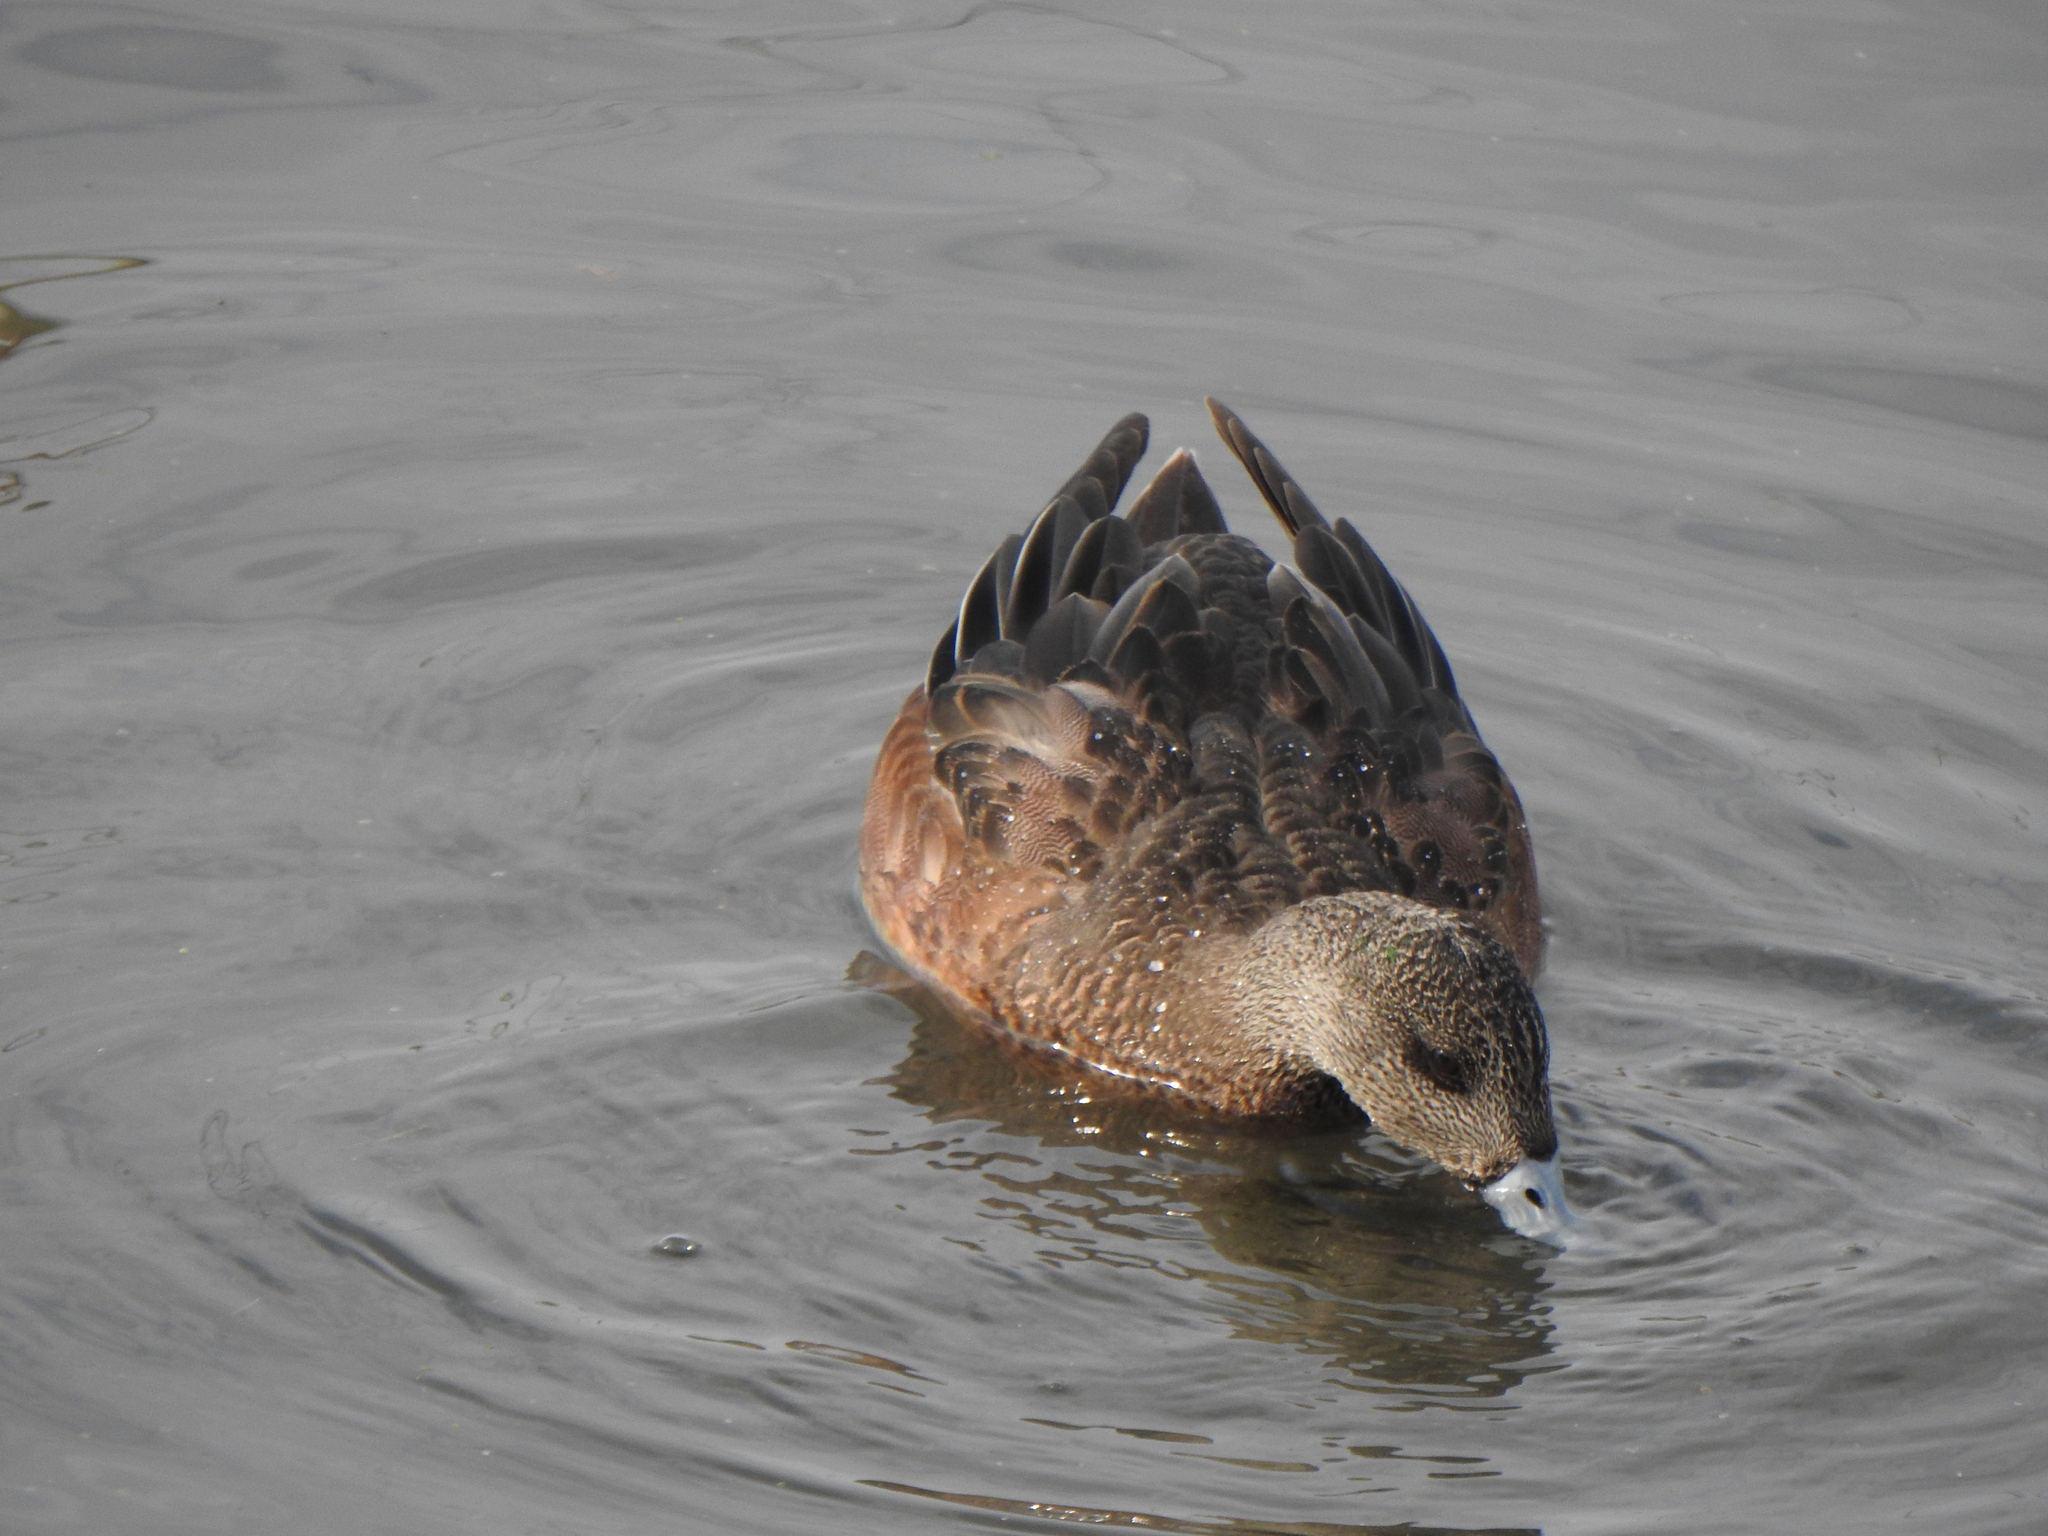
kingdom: Animalia
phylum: Chordata
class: Aves
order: Anseriformes
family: Anatidae
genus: Mareca
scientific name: Mareca americana
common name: American wigeon
